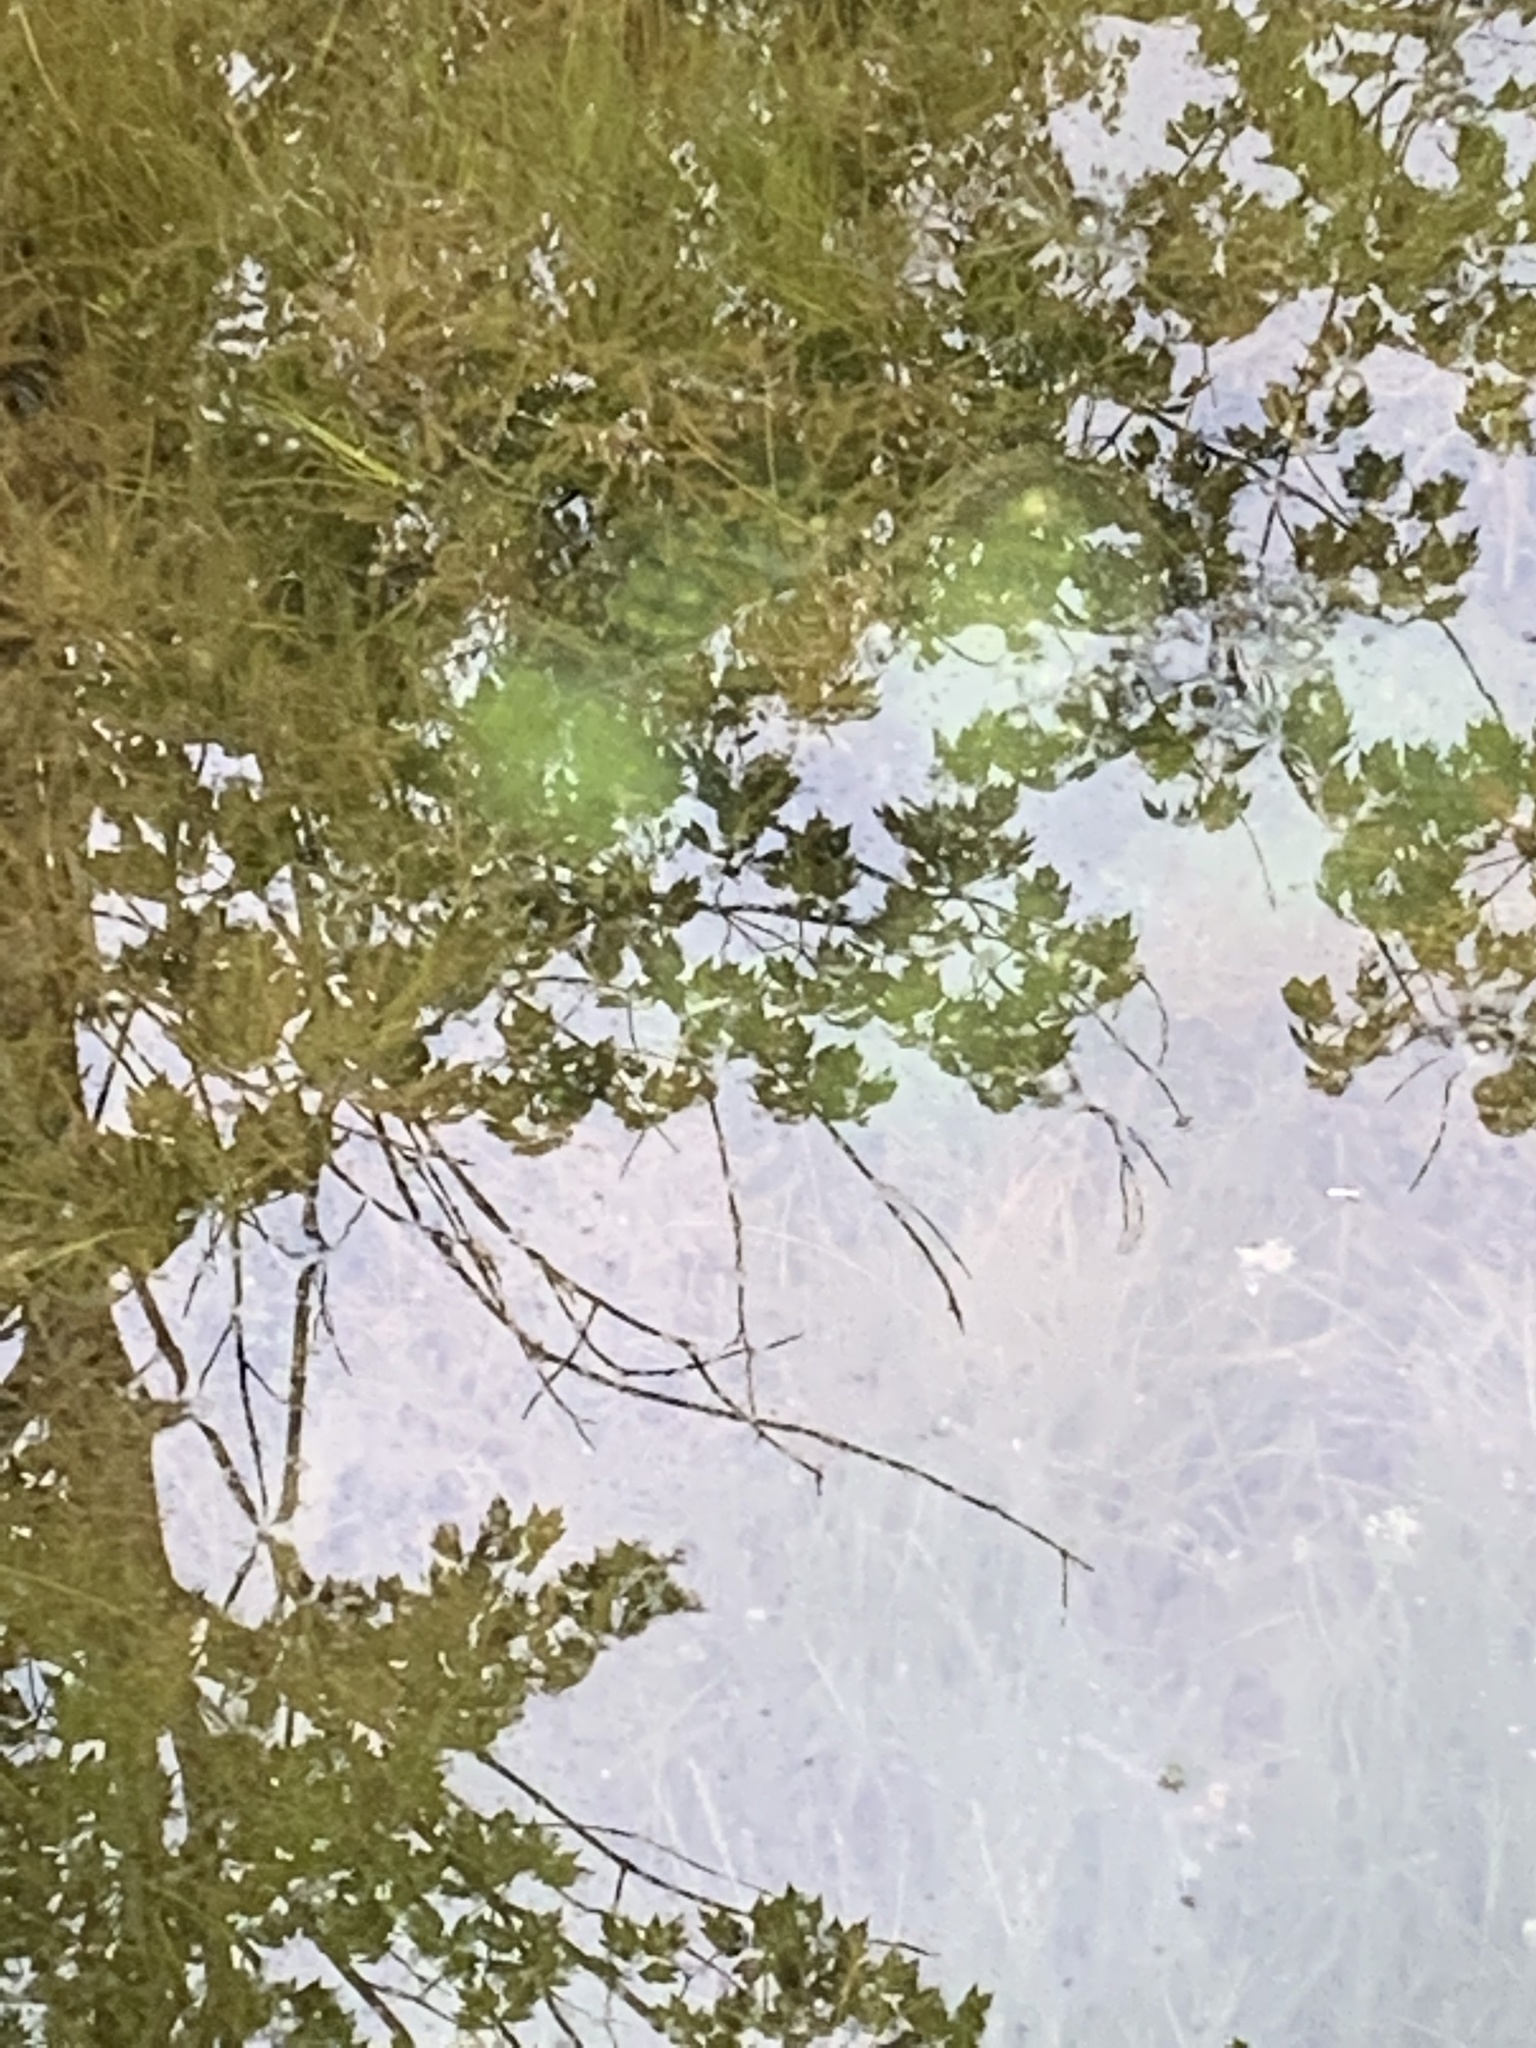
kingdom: Animalia
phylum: Chordata
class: Amphibia
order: Caudata
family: Ambystomatidae
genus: Ambystoma
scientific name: Ambystoma maculatum
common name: Spotted salamander
